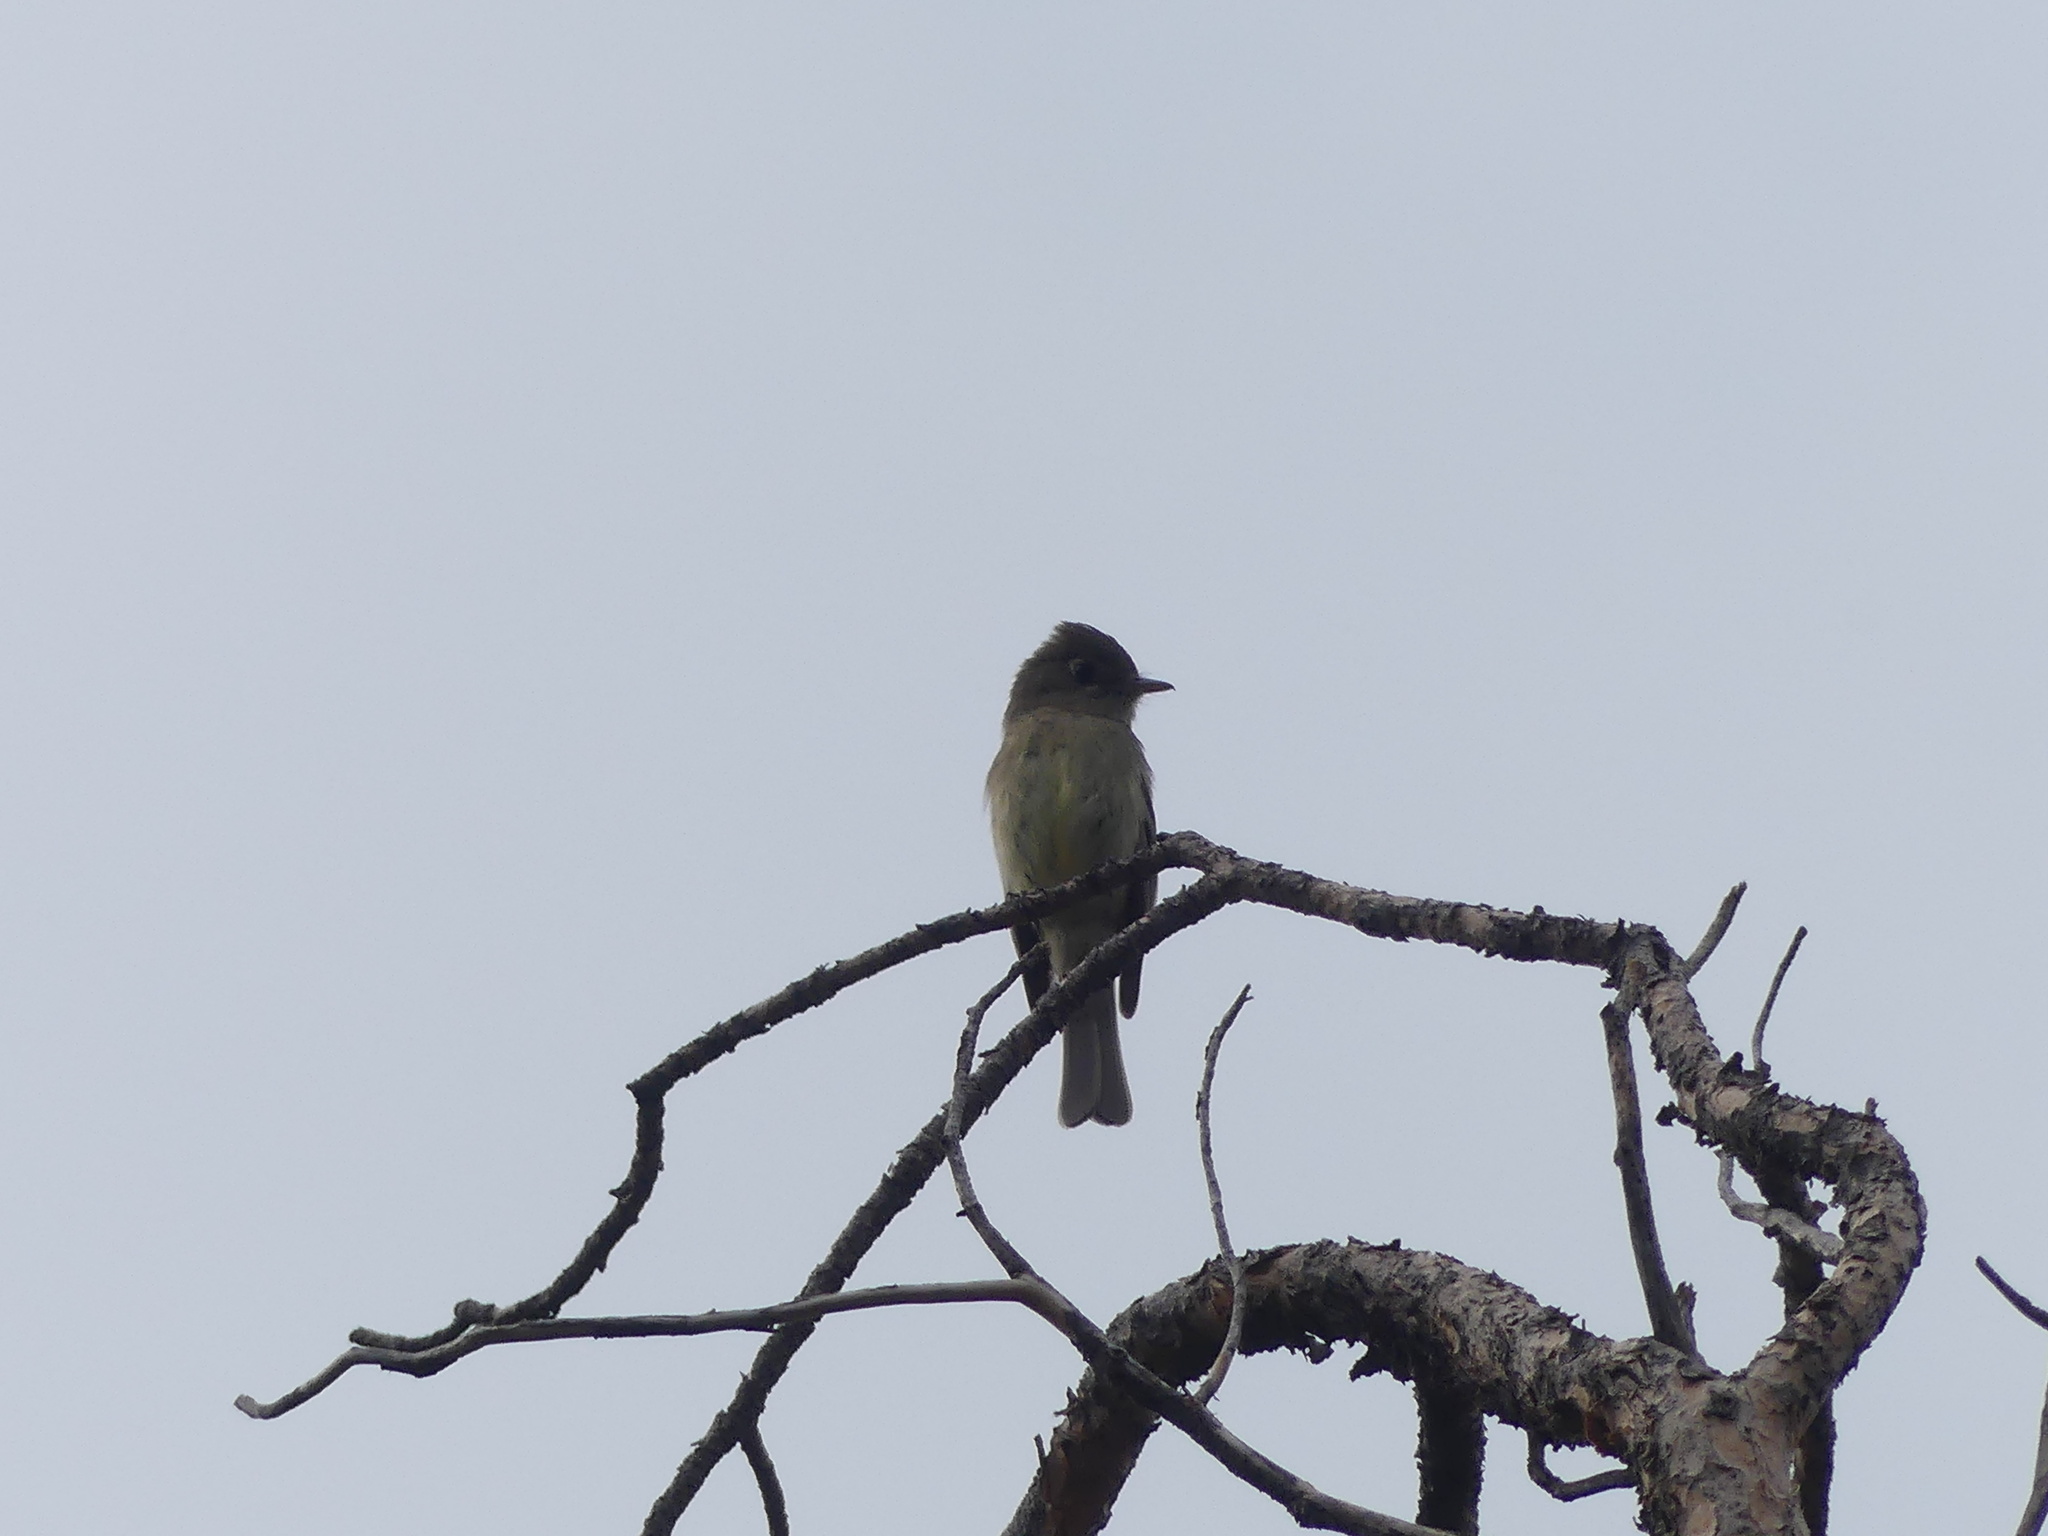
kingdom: Animalia
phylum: Chordata
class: Aves
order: Passeriformes
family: Tyrannidae
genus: Empidonax
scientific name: Empidonax difficilis
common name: Pacific-slope flycatcher
